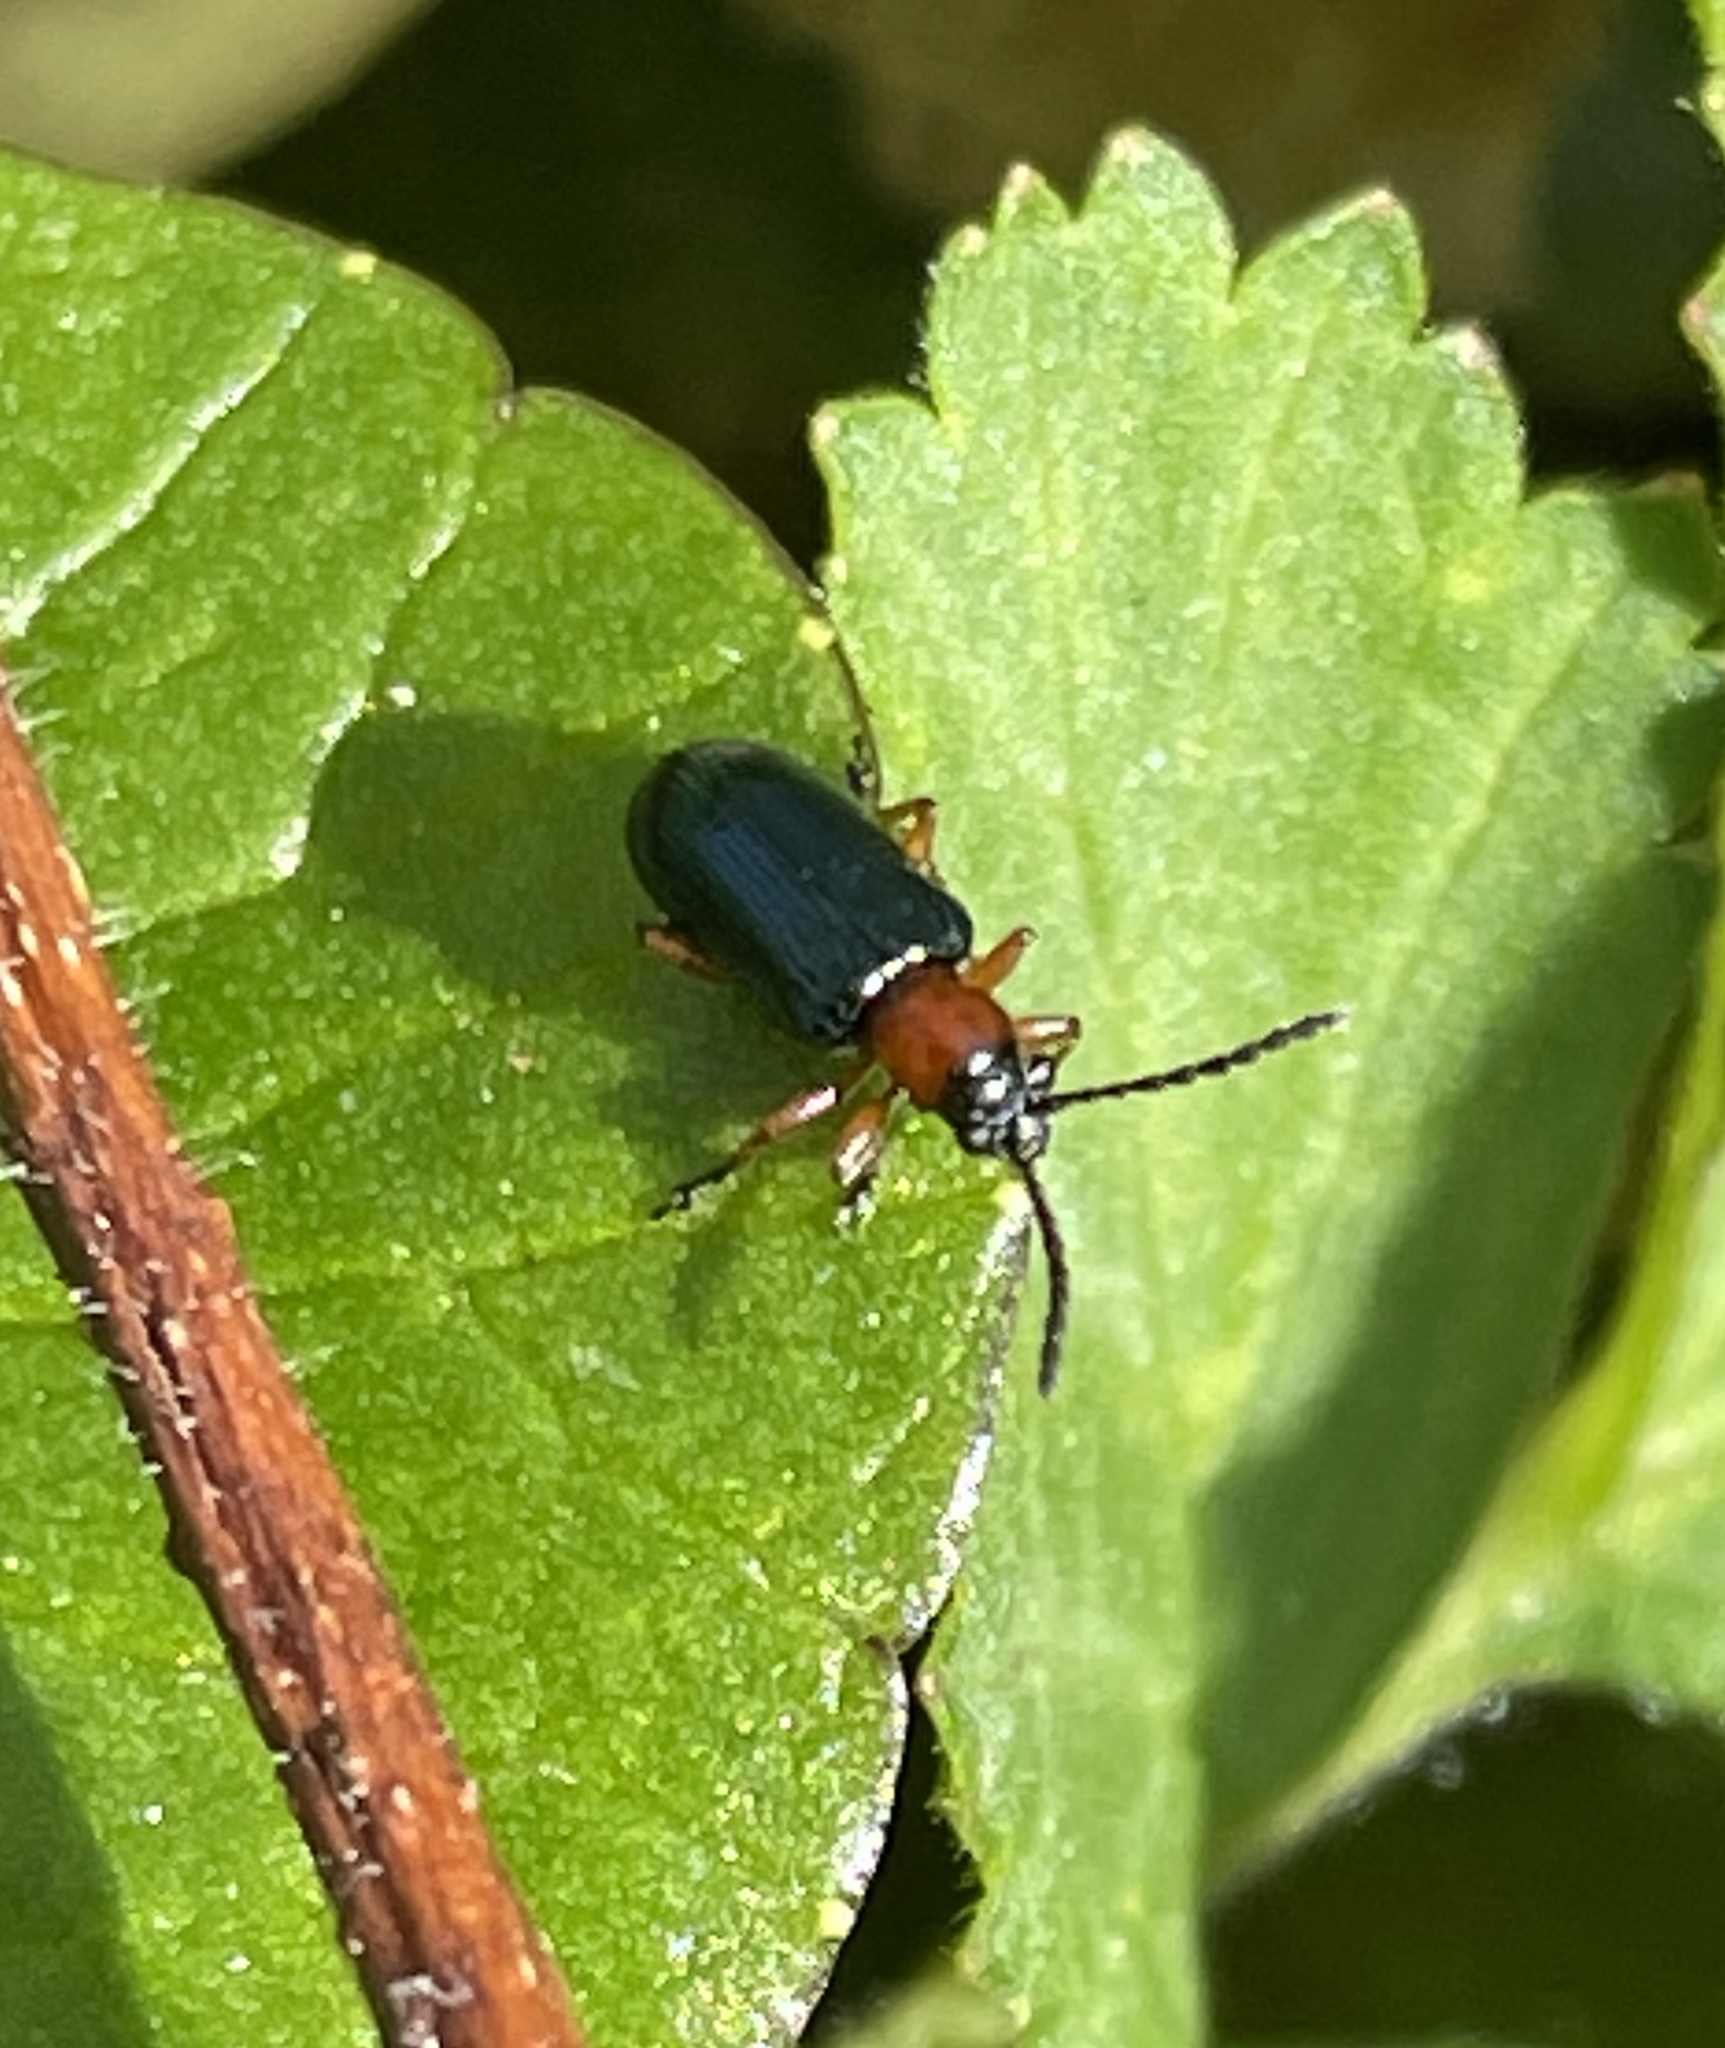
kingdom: Animalia
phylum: Arthropoda
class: Insecta
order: Coleoptera
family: Chrysomelidae
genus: Oulema
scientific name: Oulema
